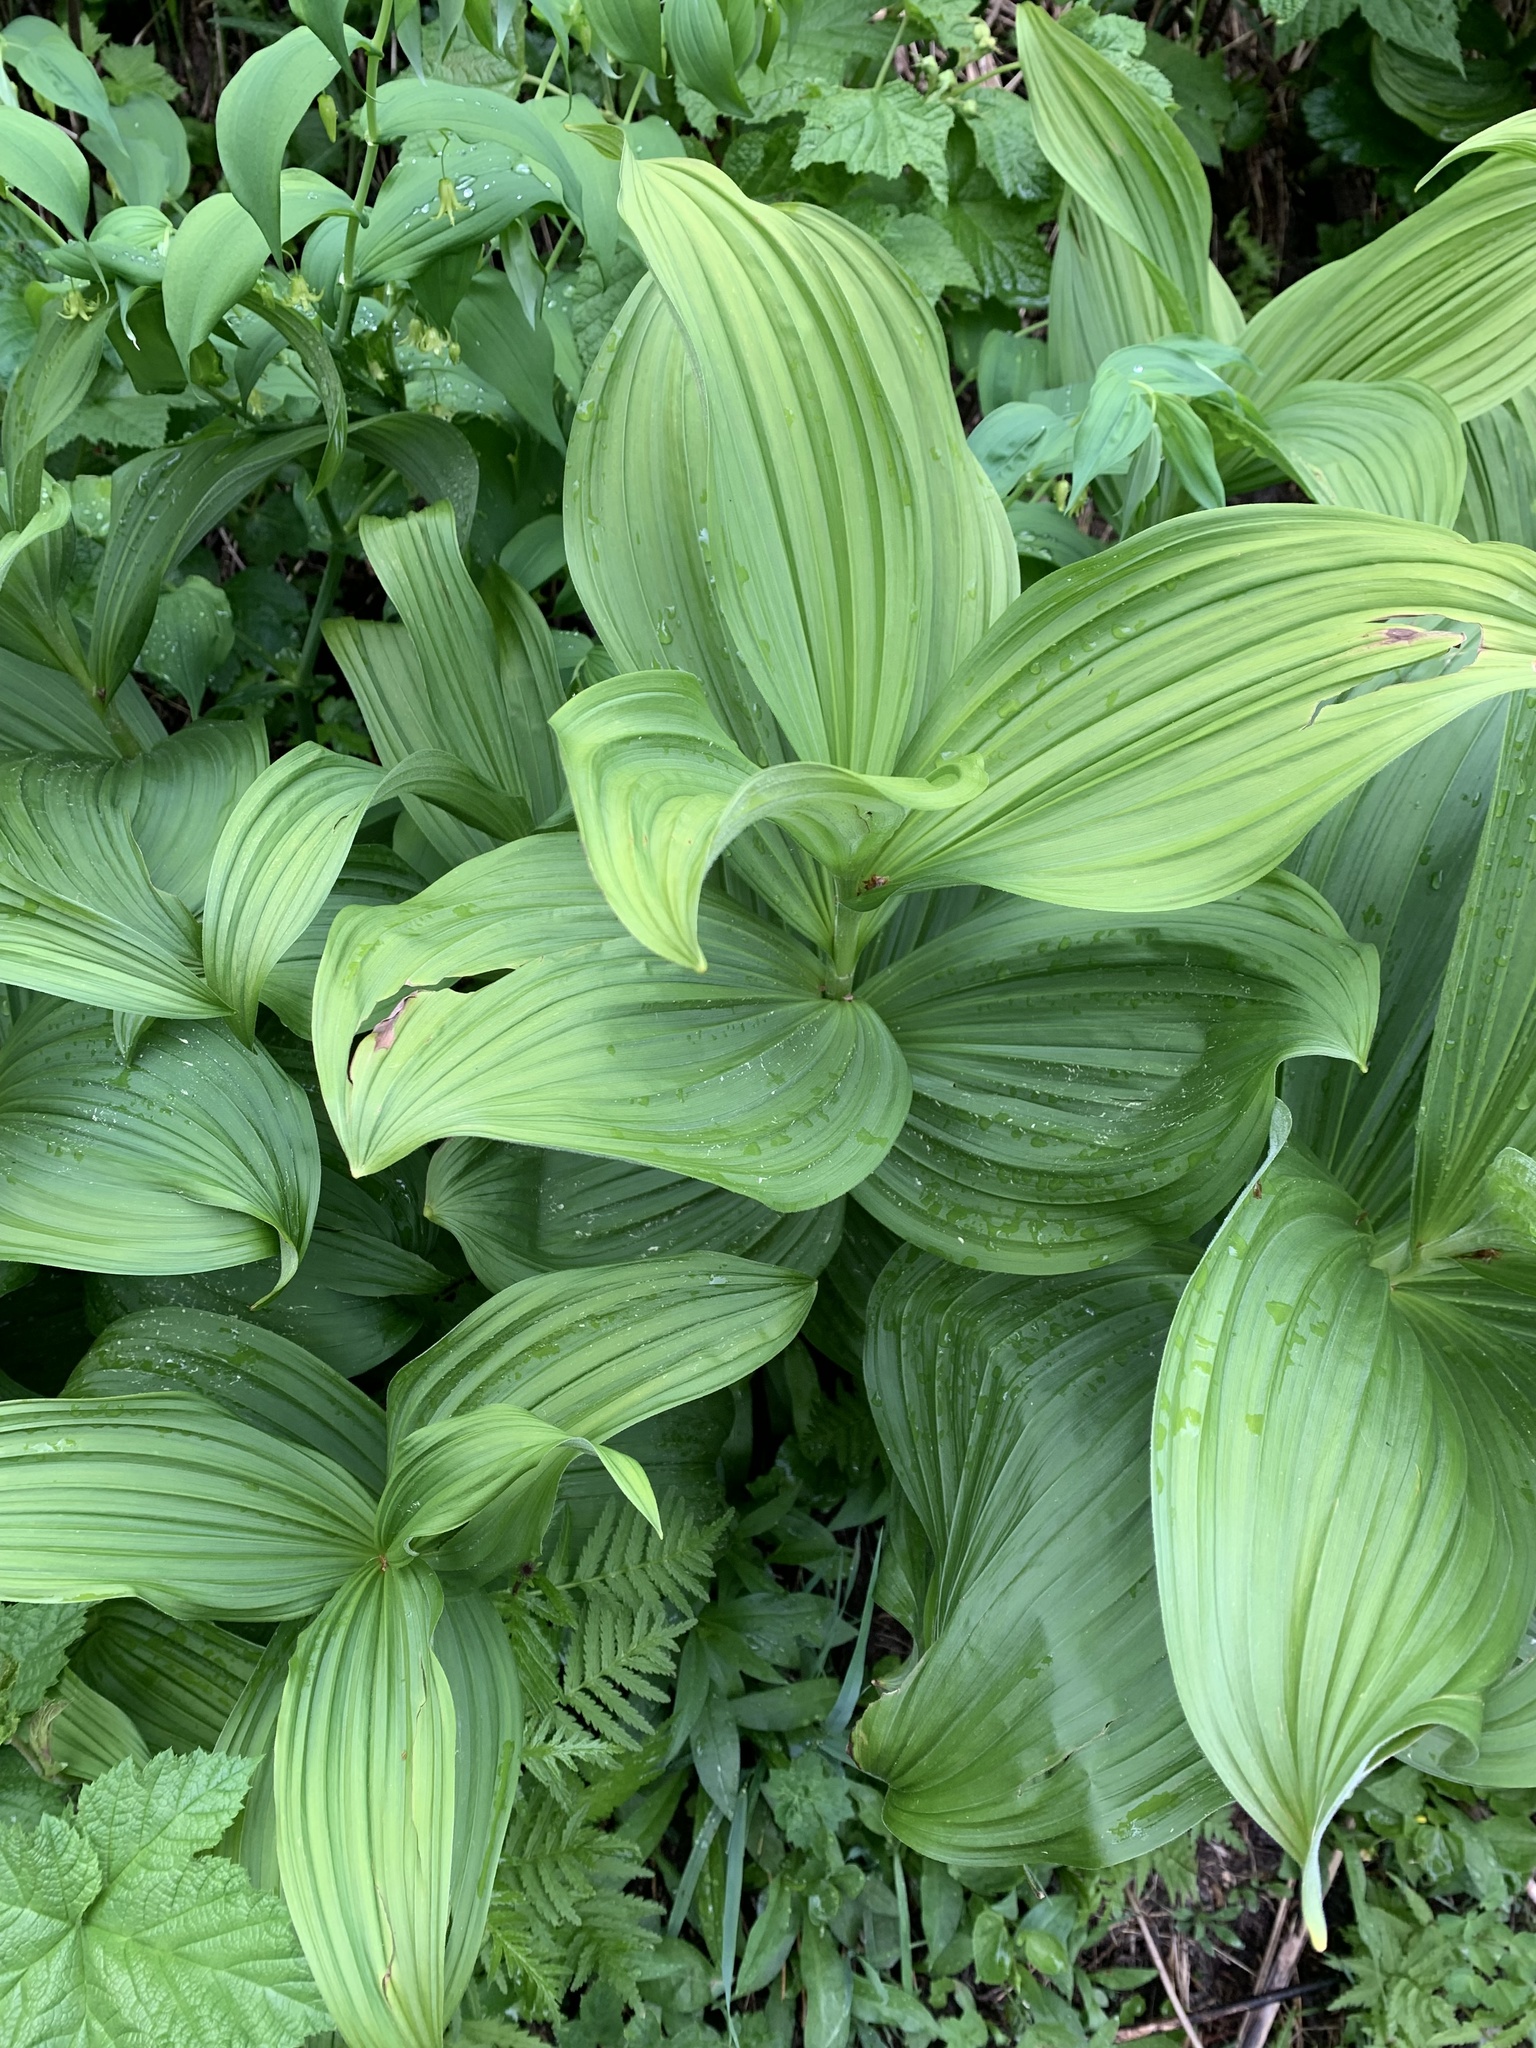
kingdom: Plantae
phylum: Tracheophyta
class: Liliopsida
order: Liliales
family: Melanthiaceae
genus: Veratrum
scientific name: Veratrum viride
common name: American false hellebore
